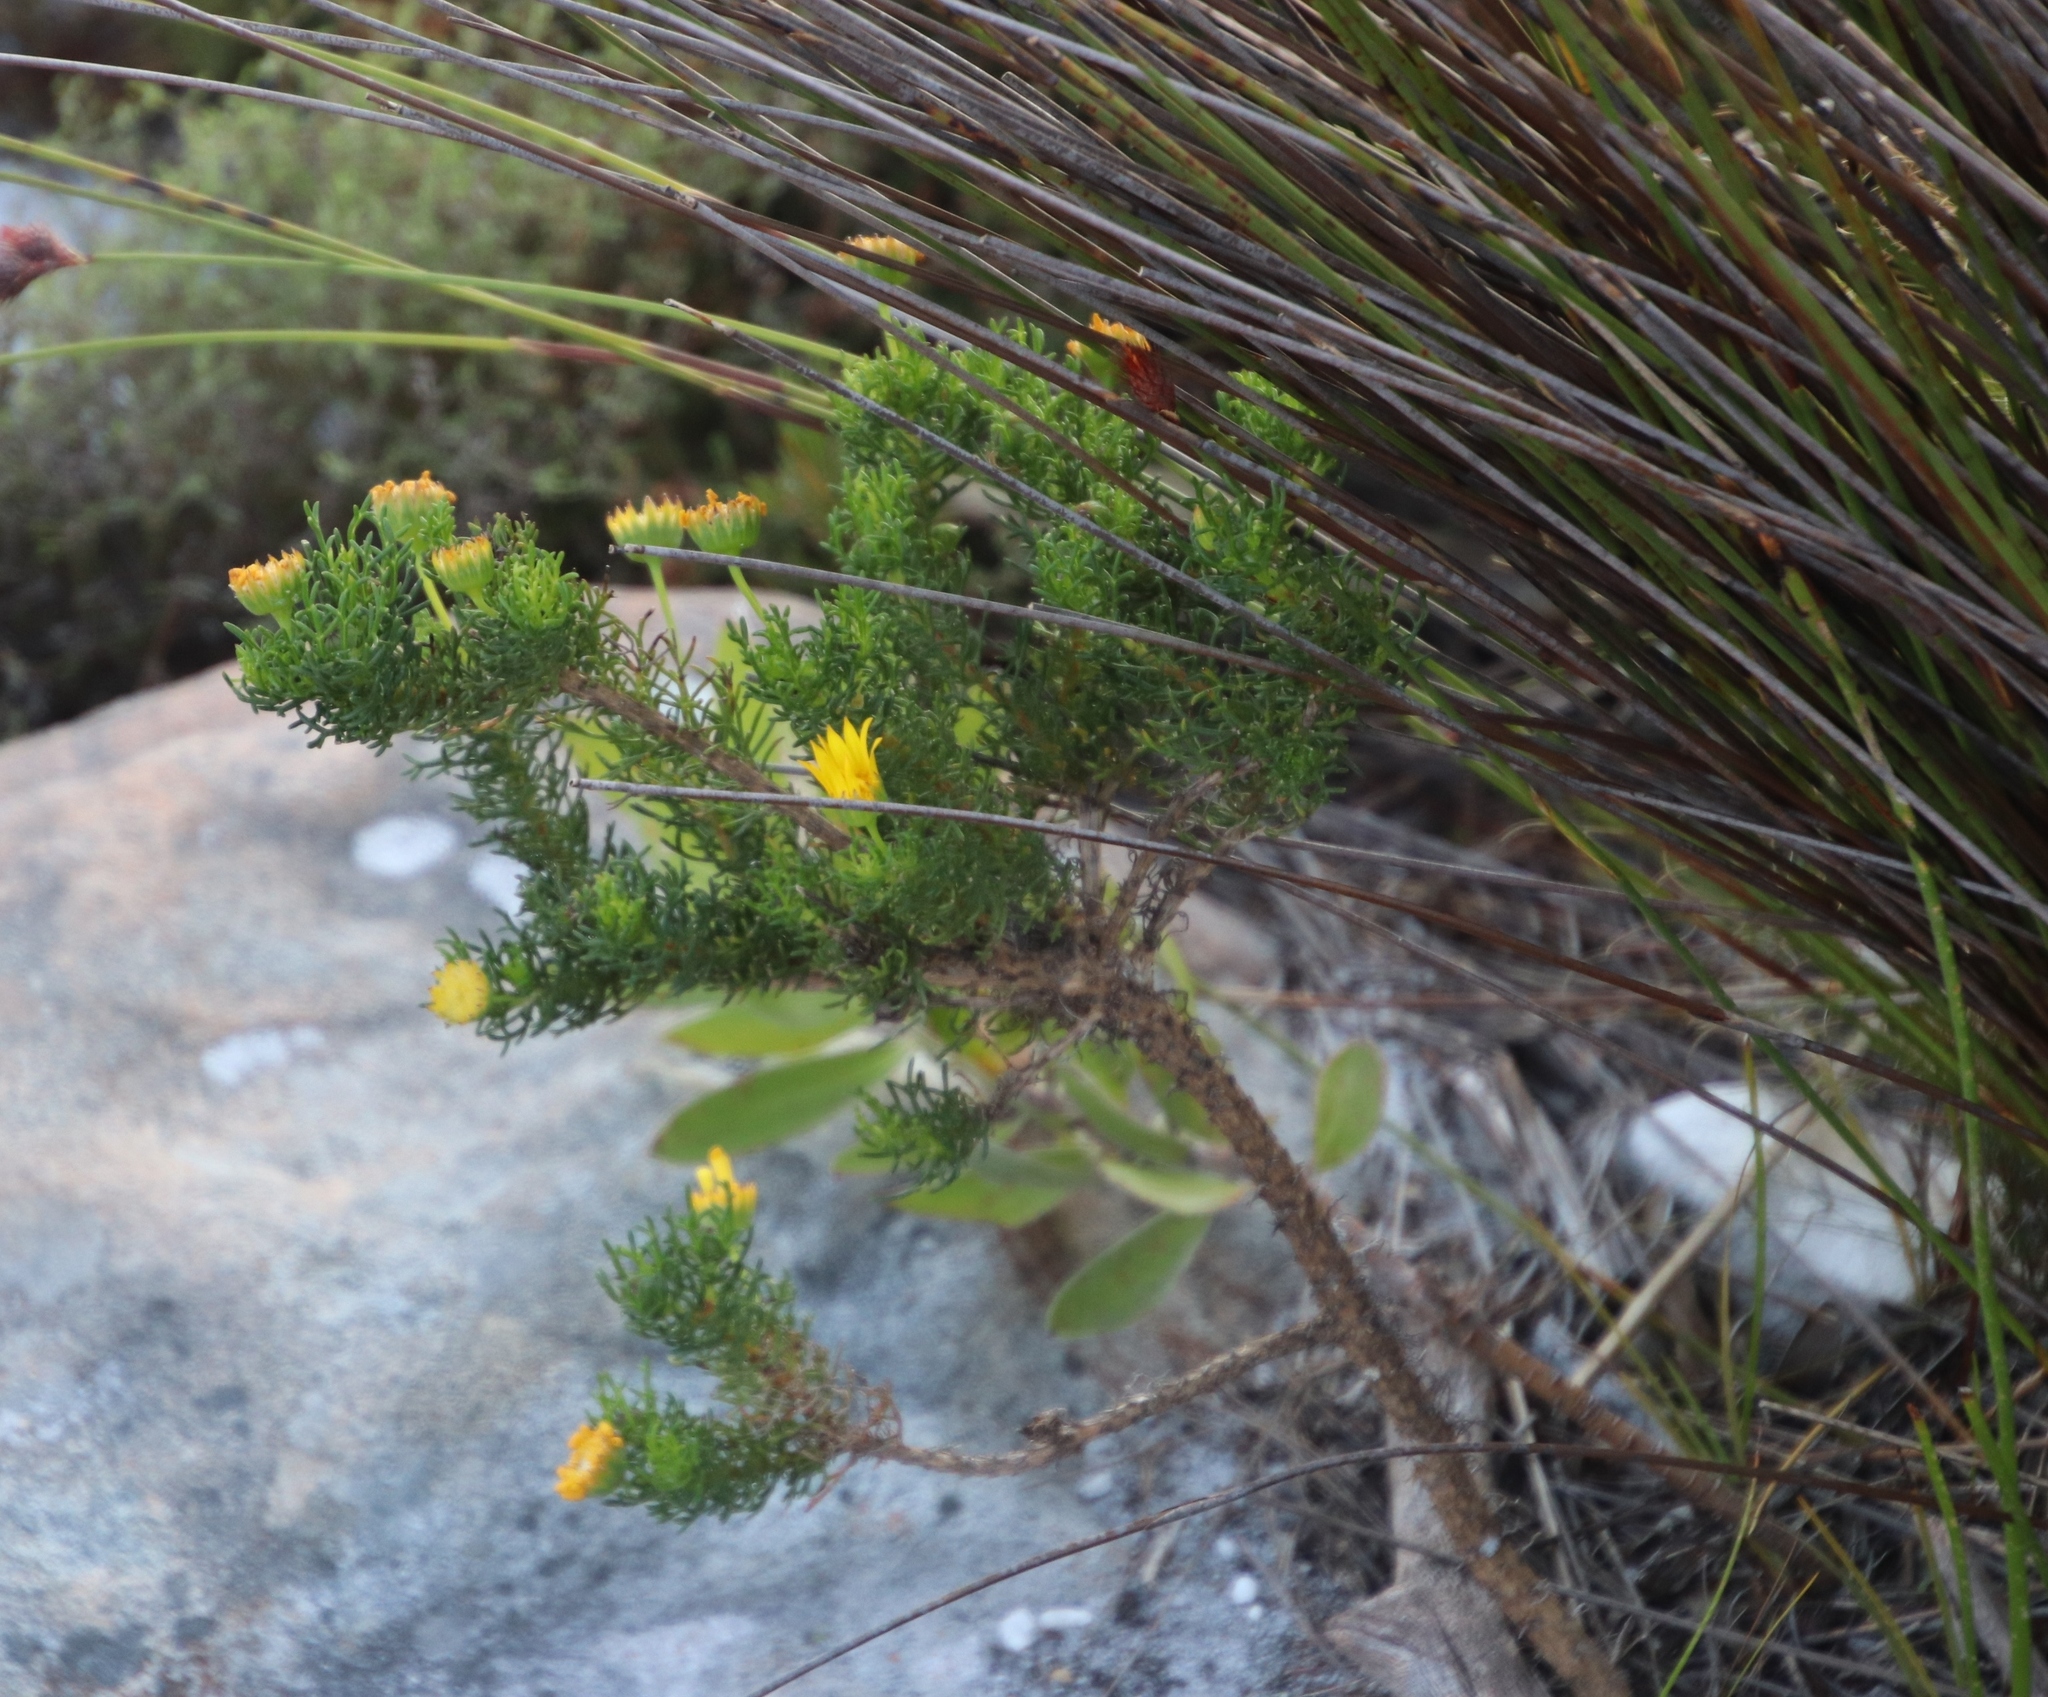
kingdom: Plantae
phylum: Tracheophyta
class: Magnoliopsida
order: Asterales
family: Asteraceae
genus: Euryops
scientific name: Euryops abrotanifolius
